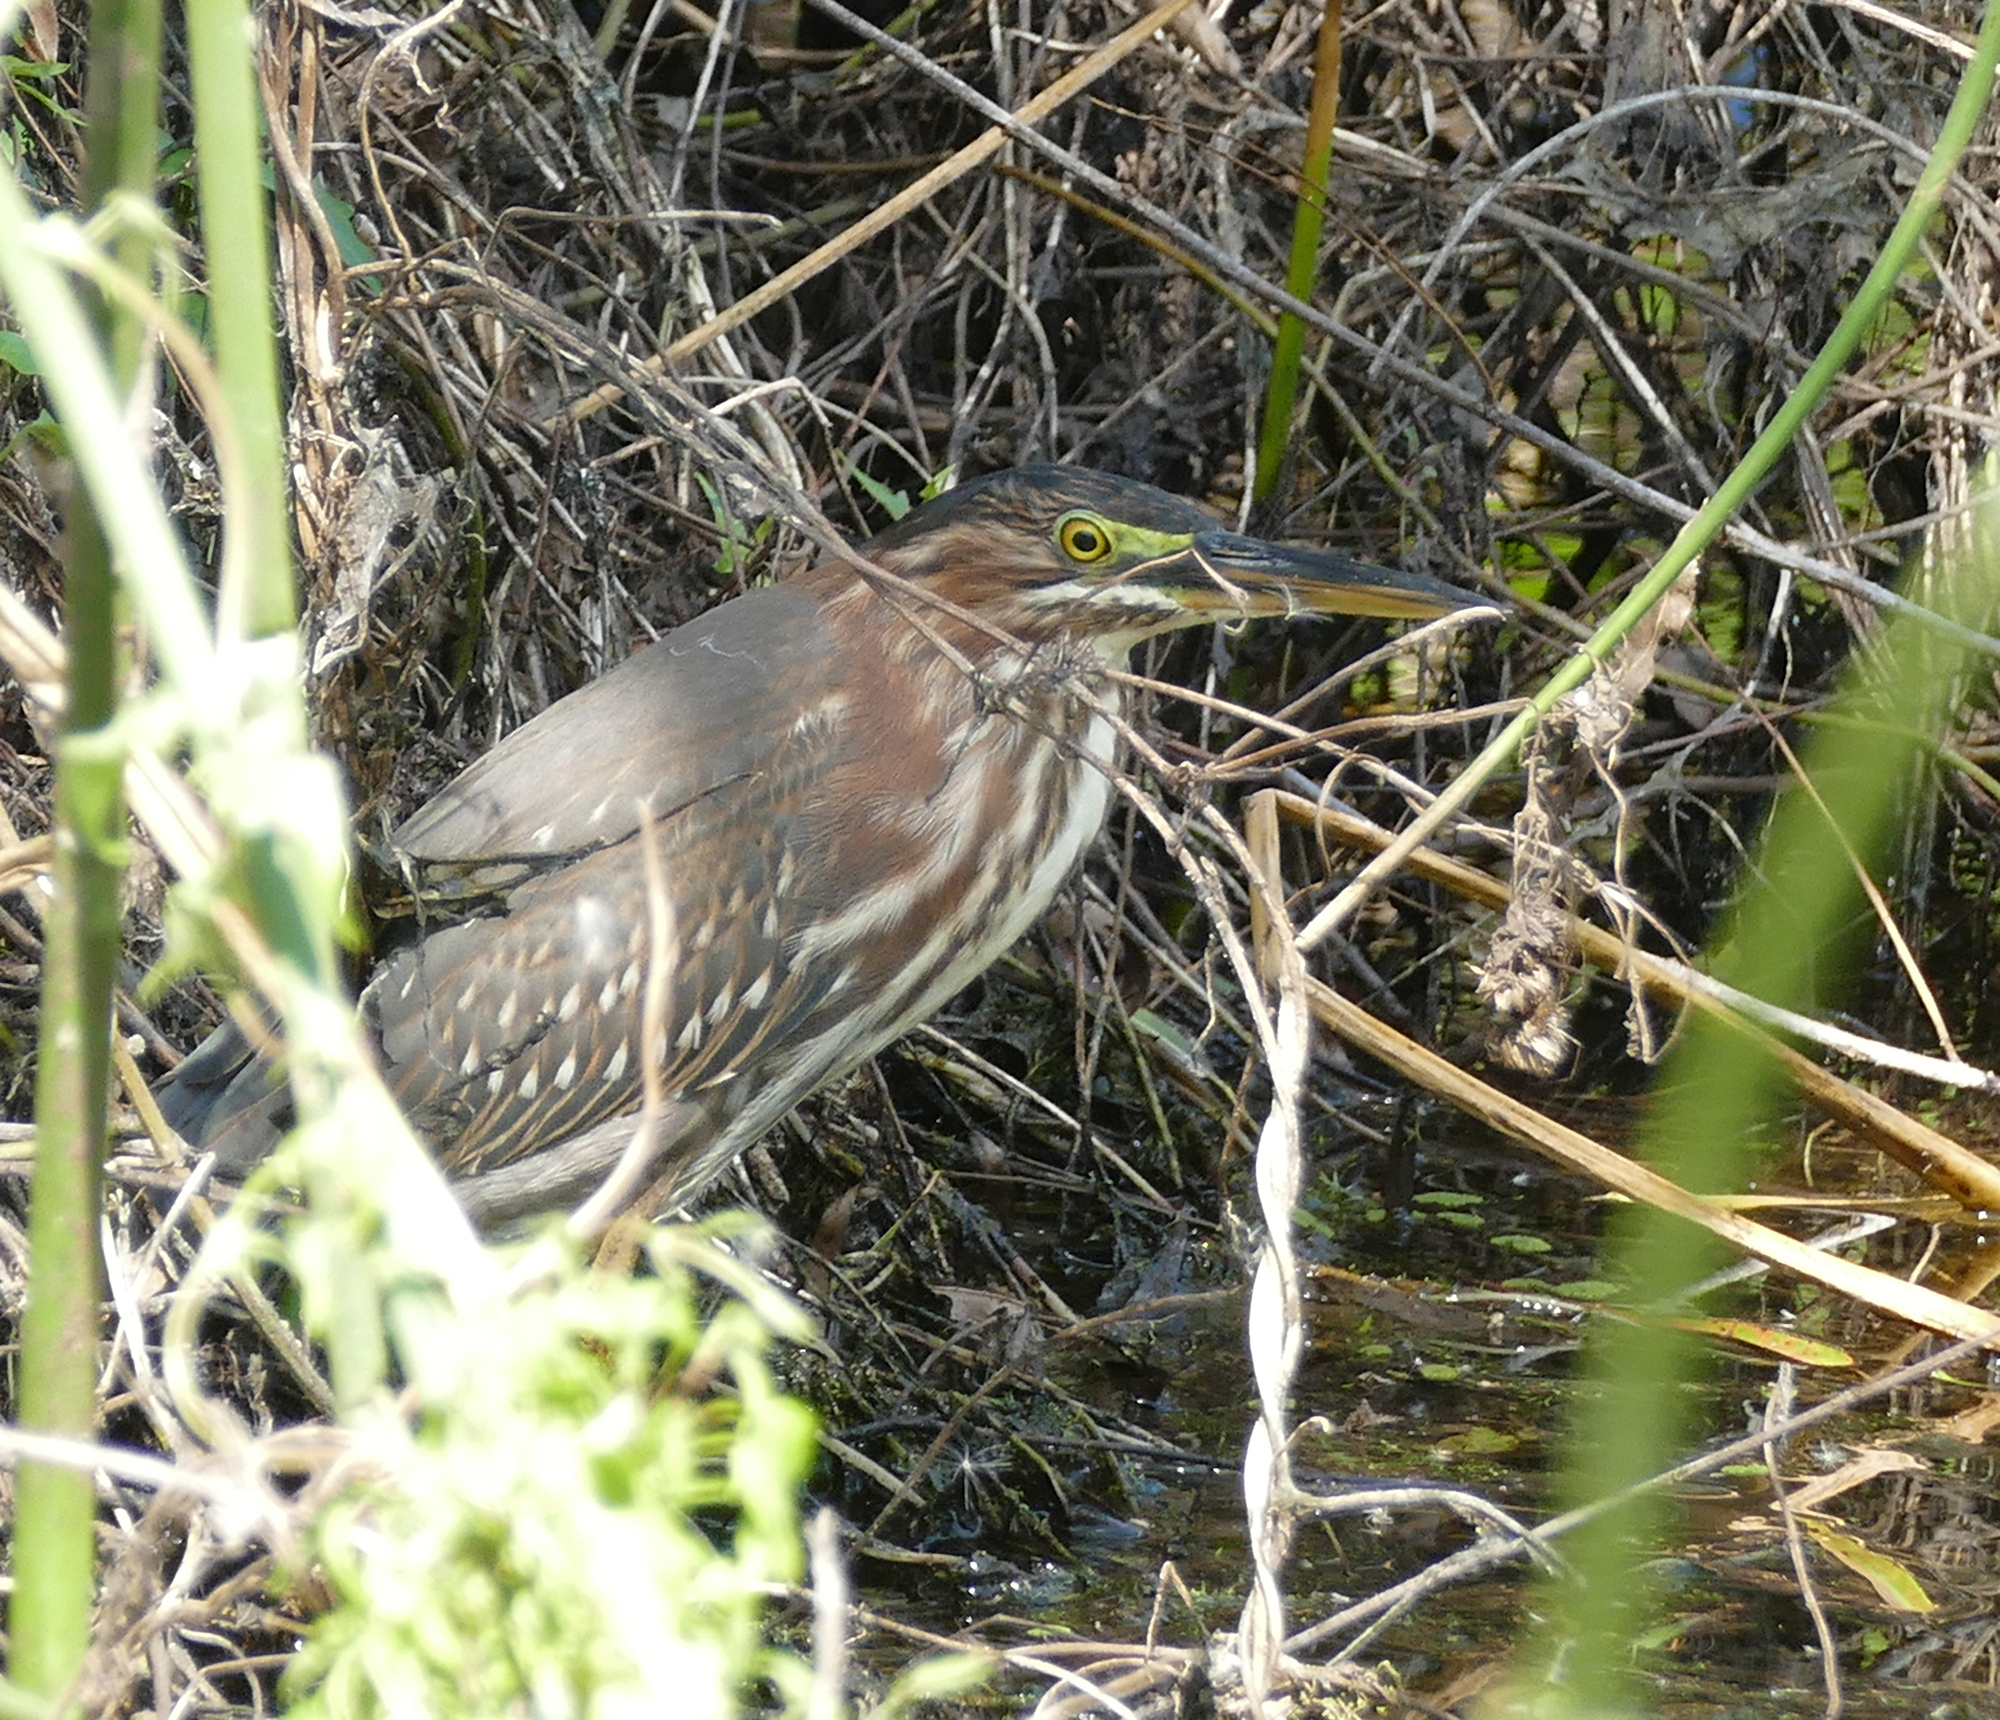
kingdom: Animalia
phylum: Chordata
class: Aves
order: Pelecaniformes
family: Ardeidae
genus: Butorides
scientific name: Butorides virescens
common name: Green heron
